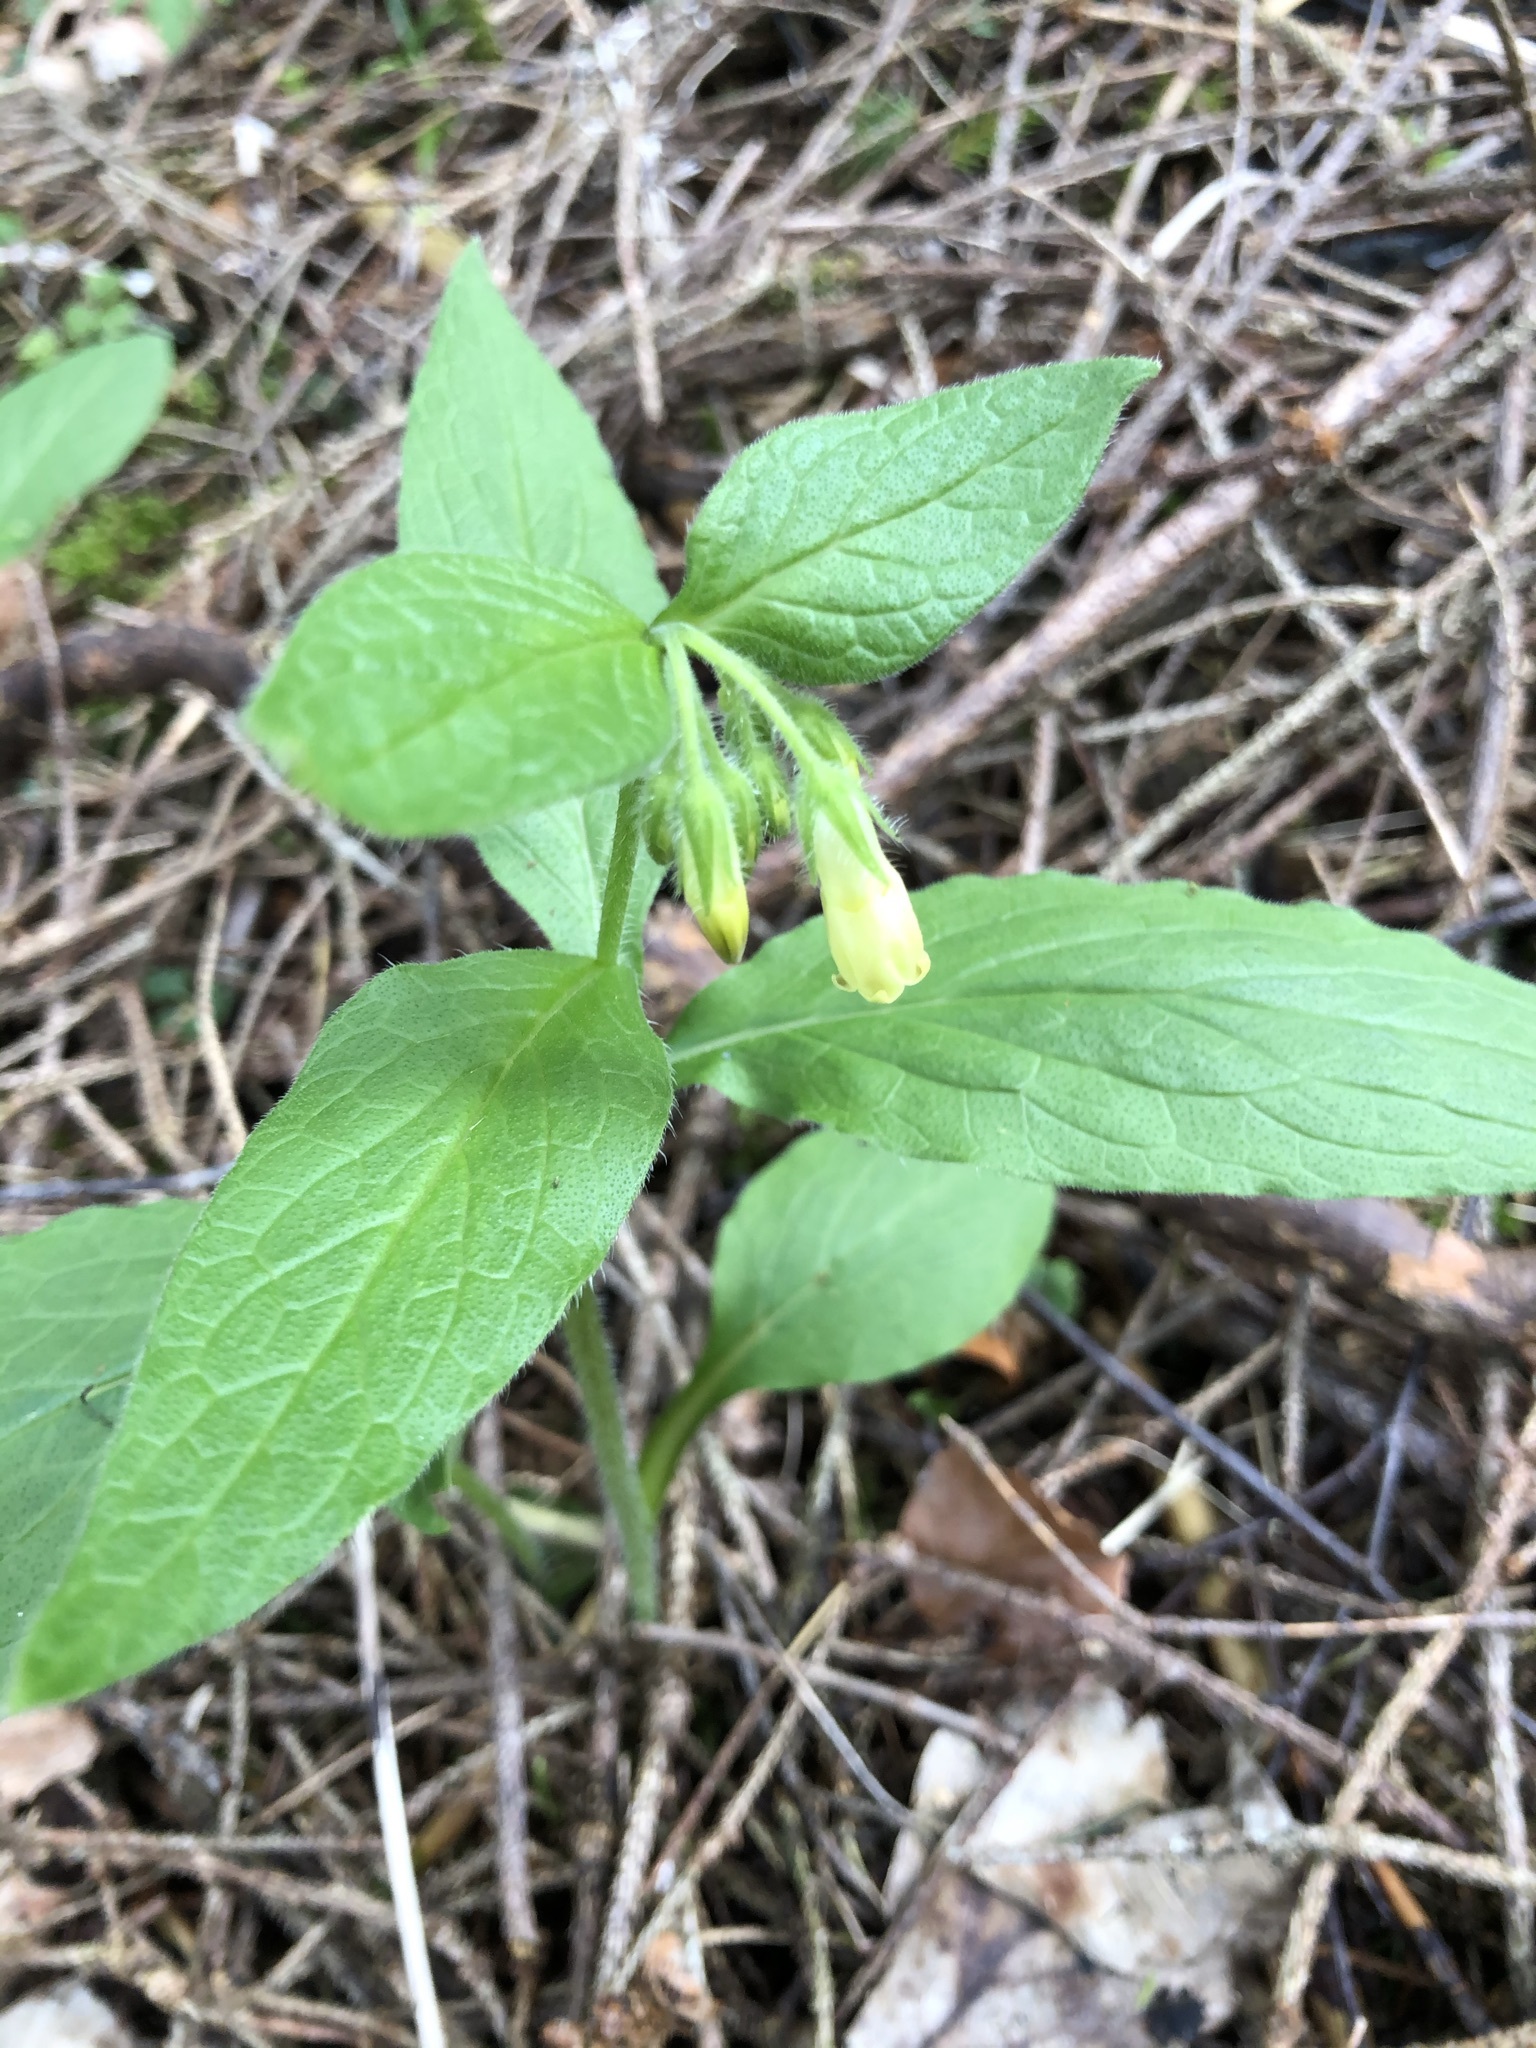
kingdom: Plantae
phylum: Tracheophyta
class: Magnoliopsida
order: Boraginales
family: Boraginaceae
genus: Symphytum
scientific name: Symphytum tuberosum
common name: Tuberous comfrey
